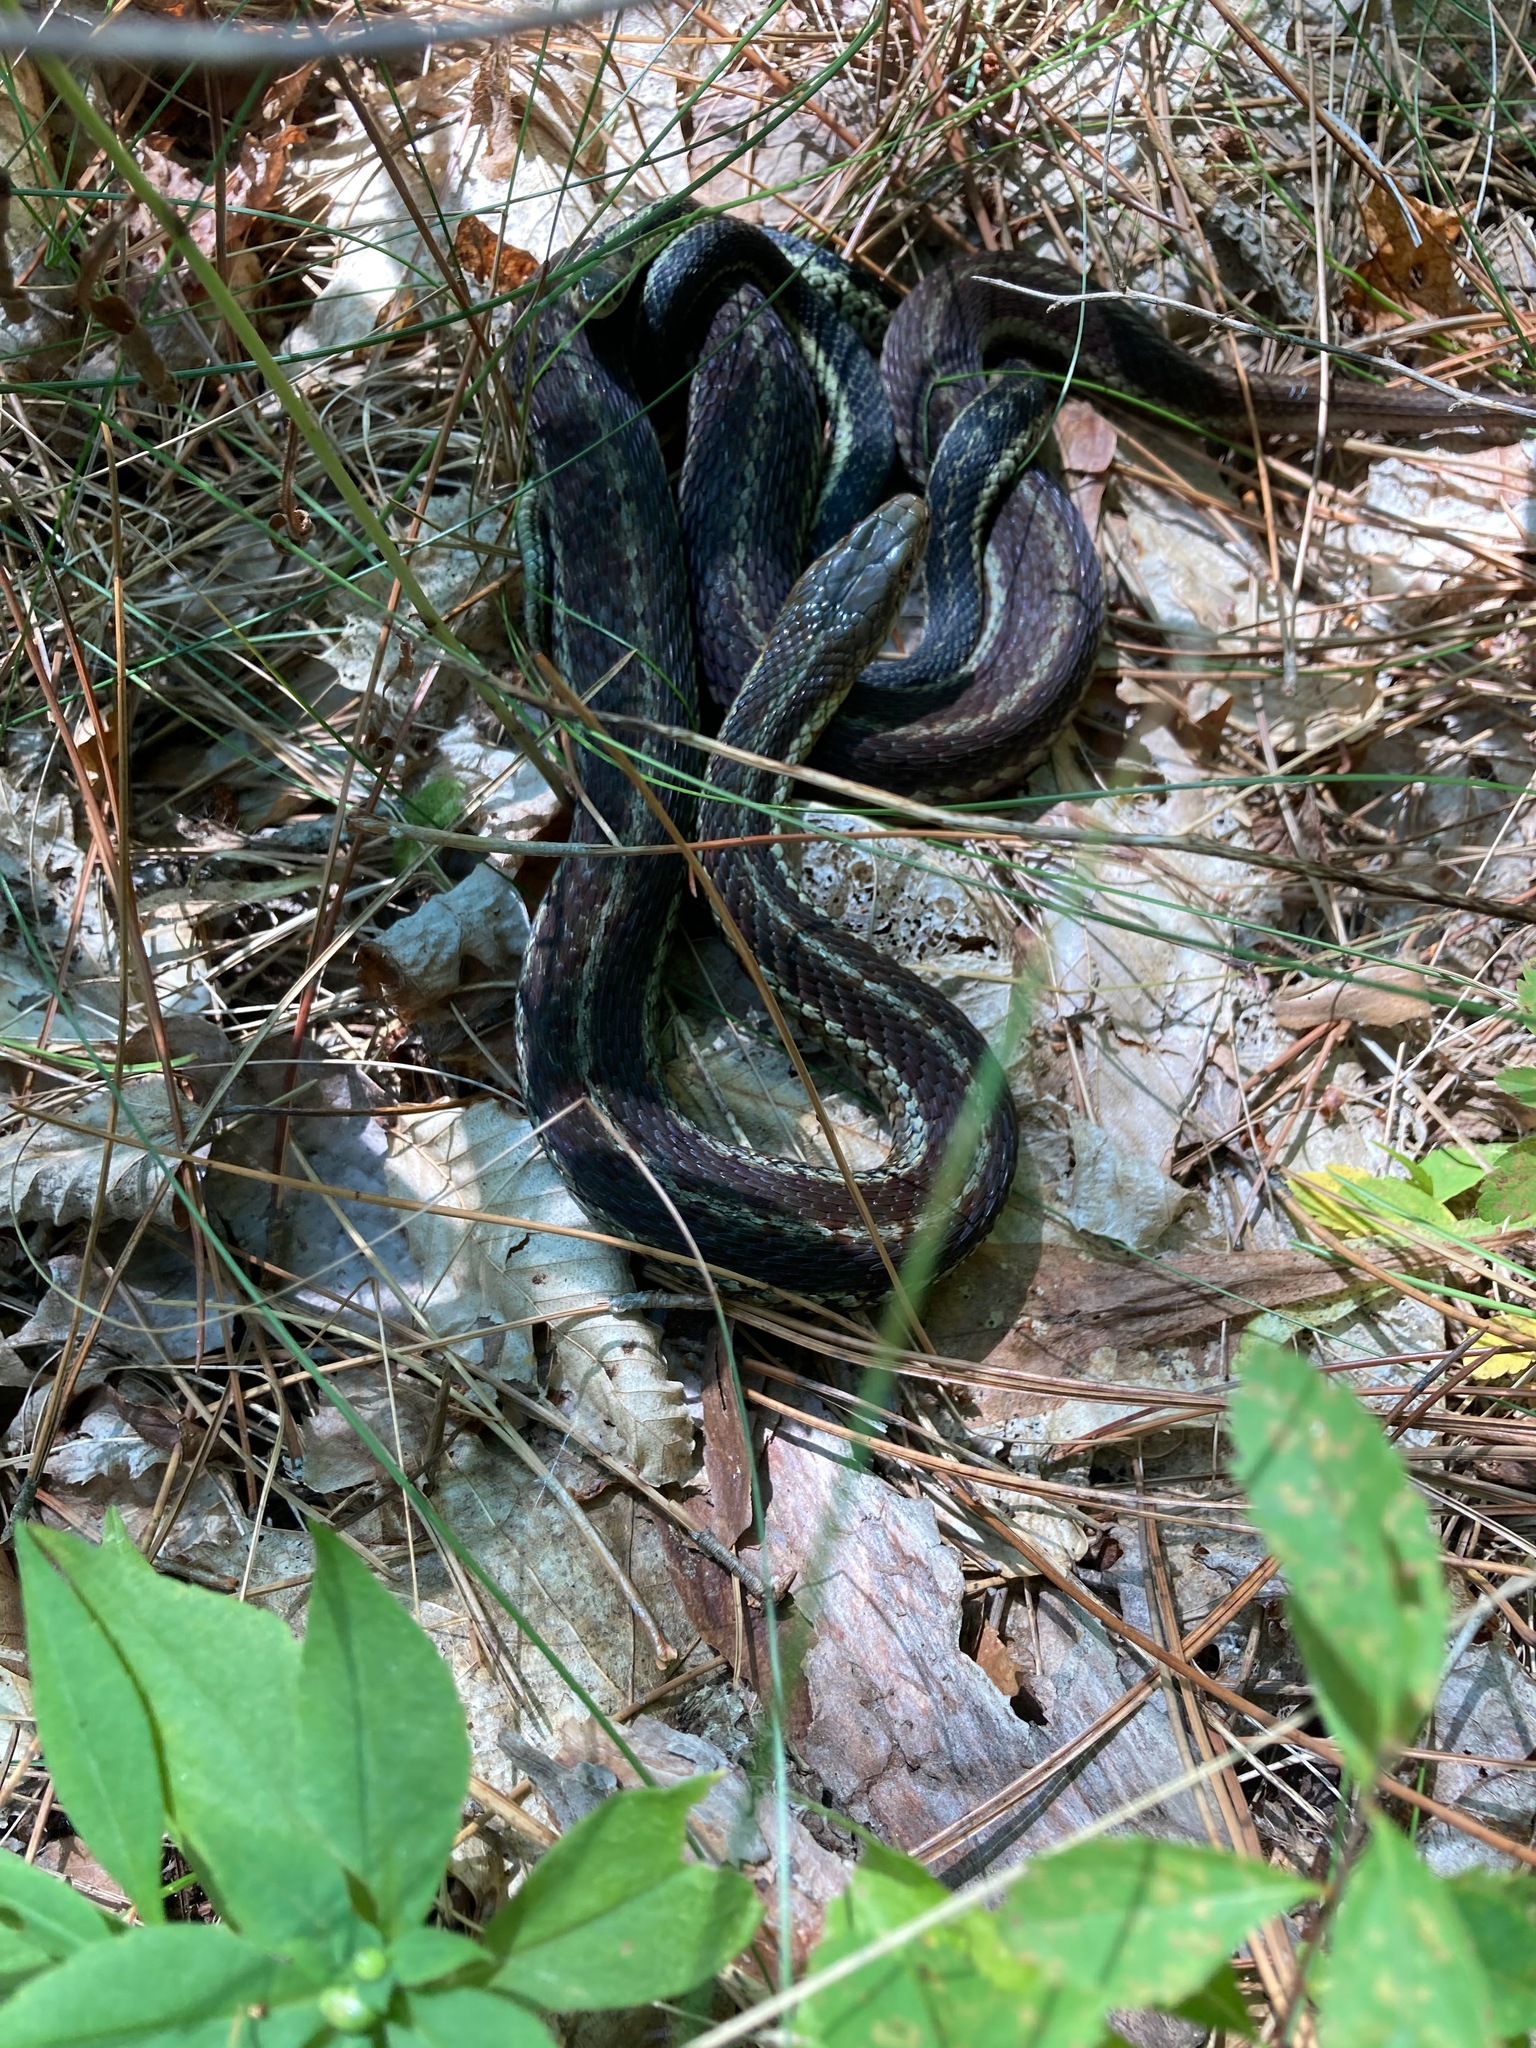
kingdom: Animalia
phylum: Chordata
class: Squamata
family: Colubridae
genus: Thamnophis
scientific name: Thamnophis sirtalis
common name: Common garter snake
